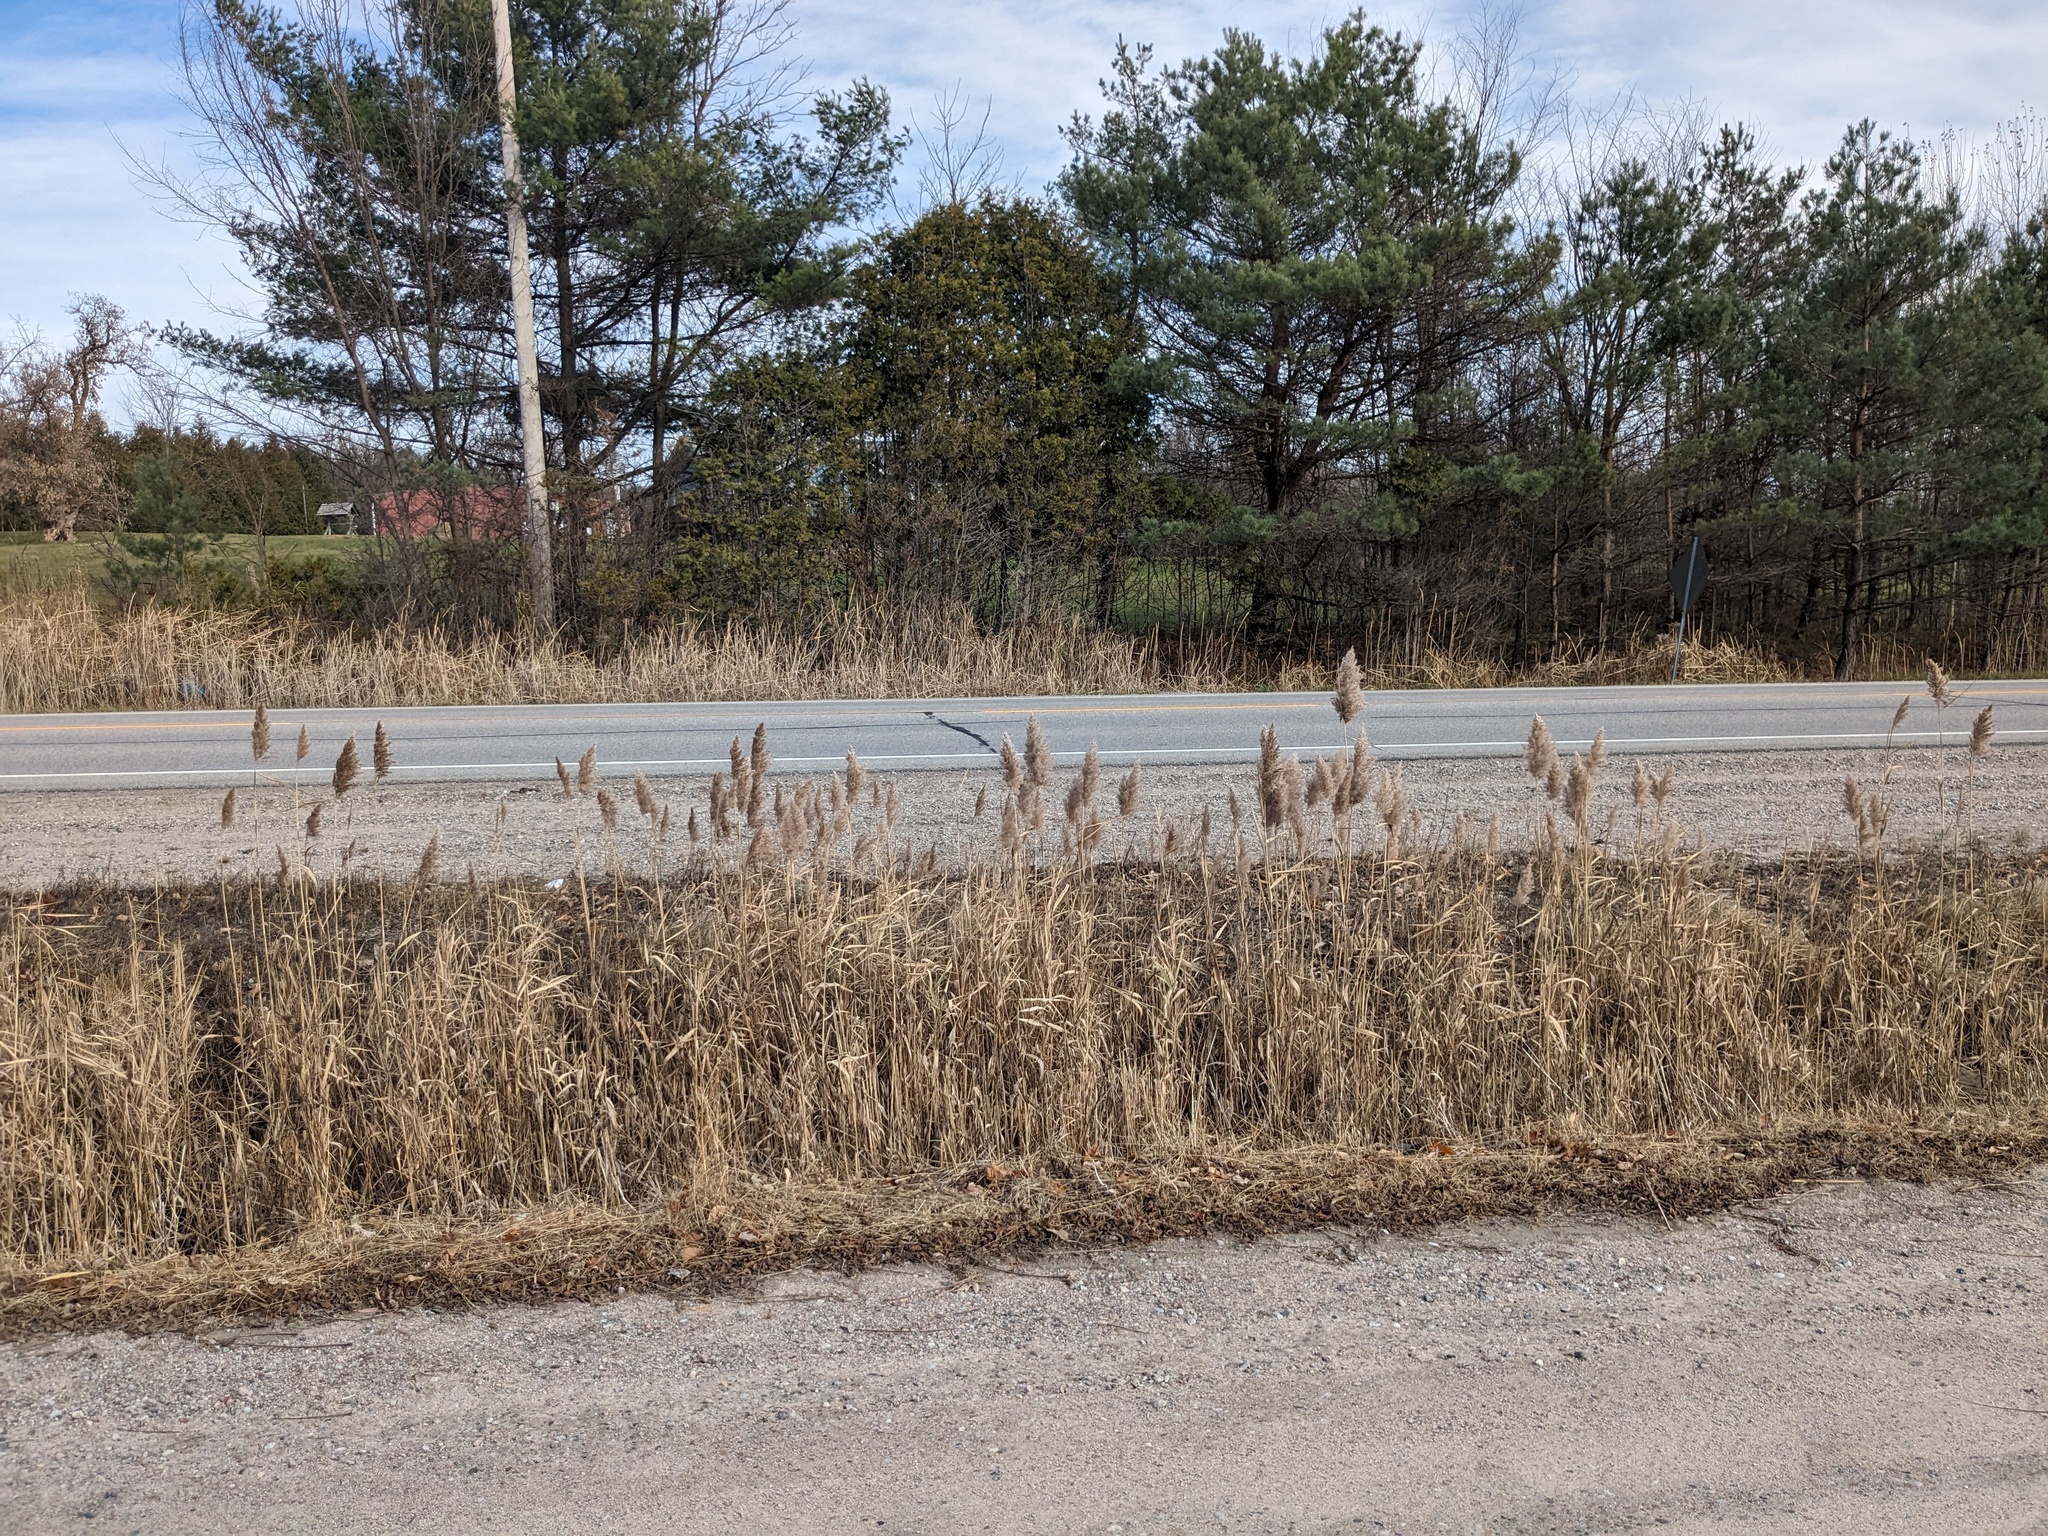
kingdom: Plantae
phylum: Tracheophyta
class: Liliopsida
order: Poales
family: Poaceae
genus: Phragmites
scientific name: Phragmites australis
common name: Common reed
